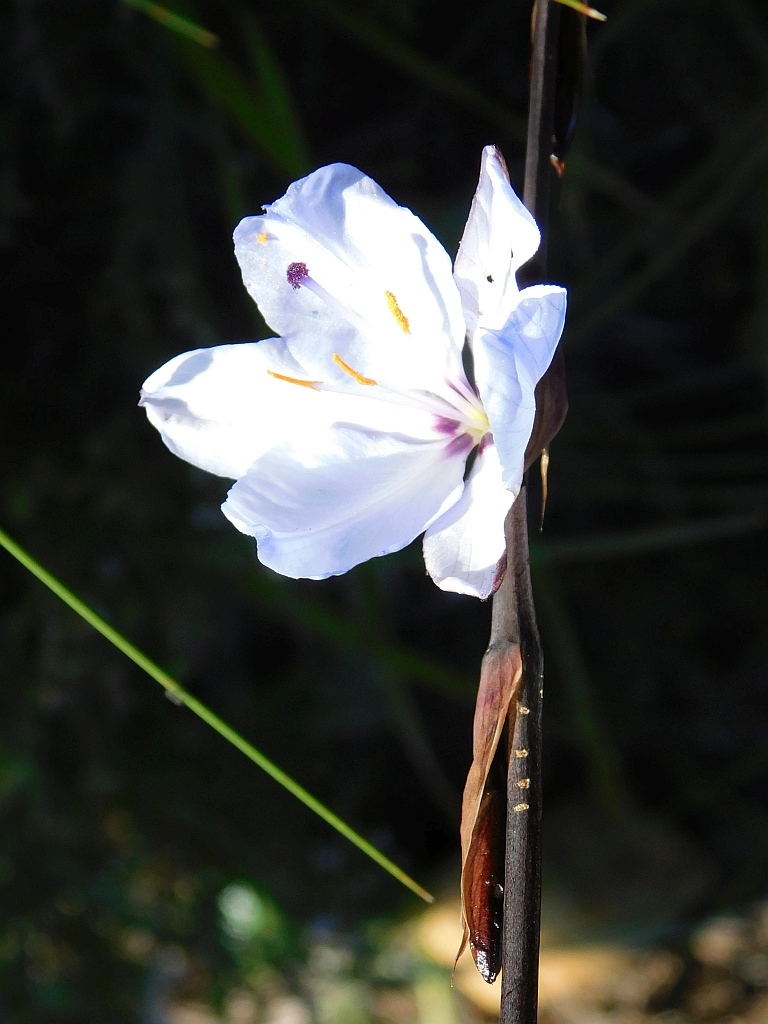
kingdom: Plantae
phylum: Tracheophyta
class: Liliopsida
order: Asparagales
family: Iridaceae
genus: Aristea
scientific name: Aristea spiralis
